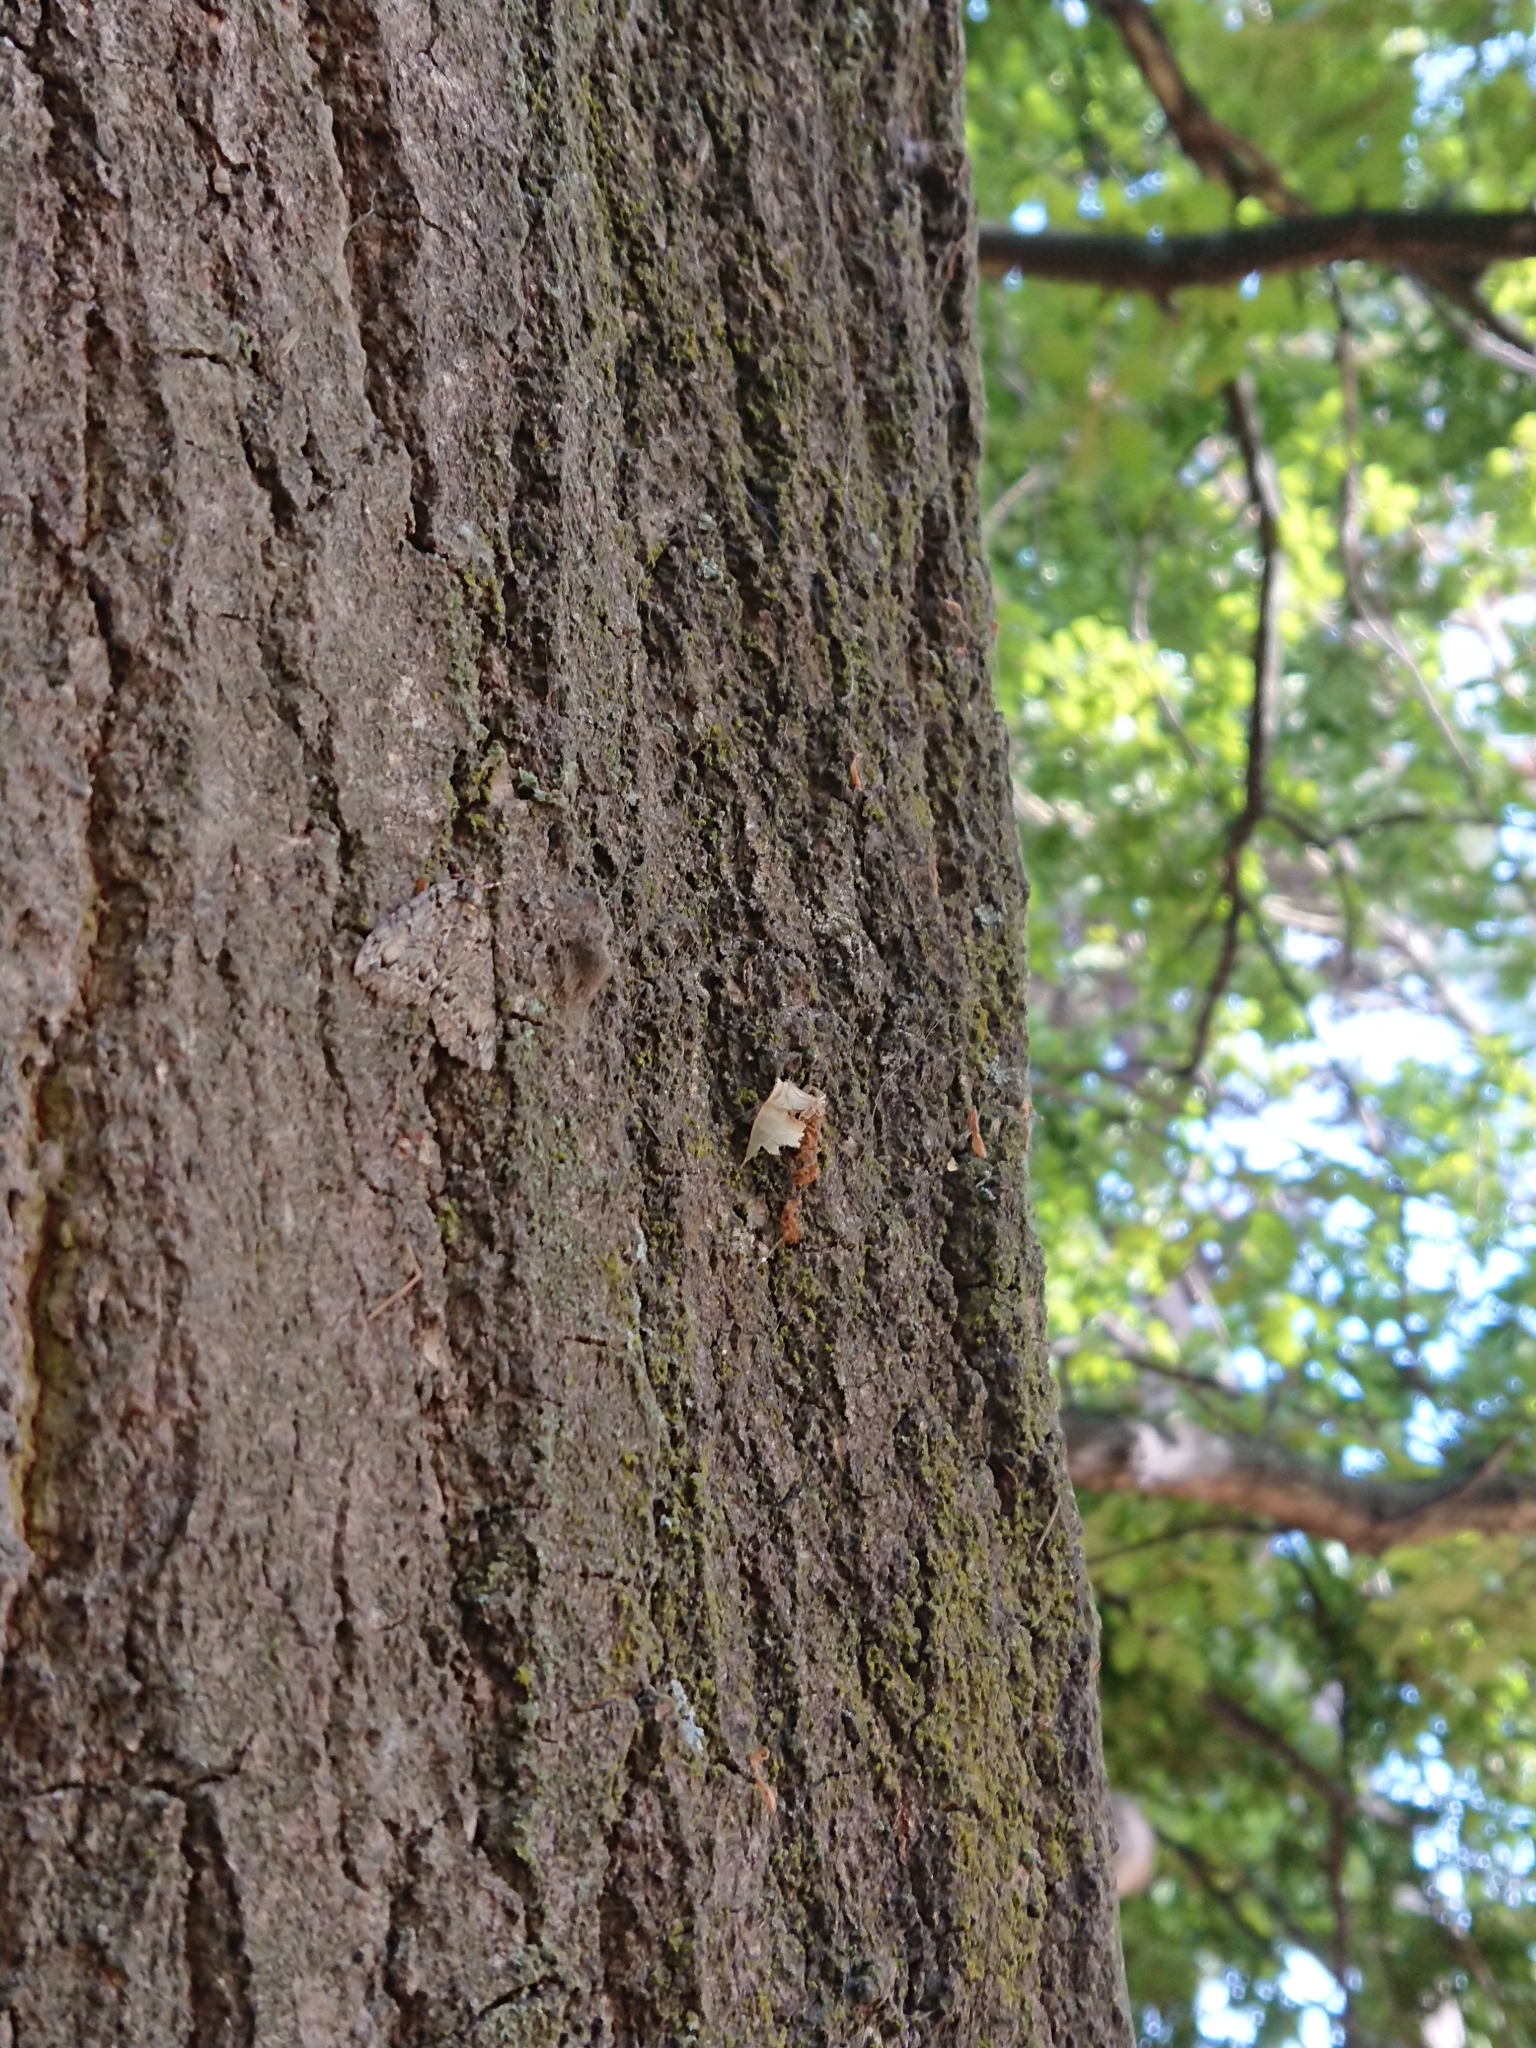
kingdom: Animalia
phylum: Arthropoda
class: Insecta
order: Lepidoptera
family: Geometridae
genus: Pseudocoremia
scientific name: Pseudocoremia suavis
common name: Common forest looper
